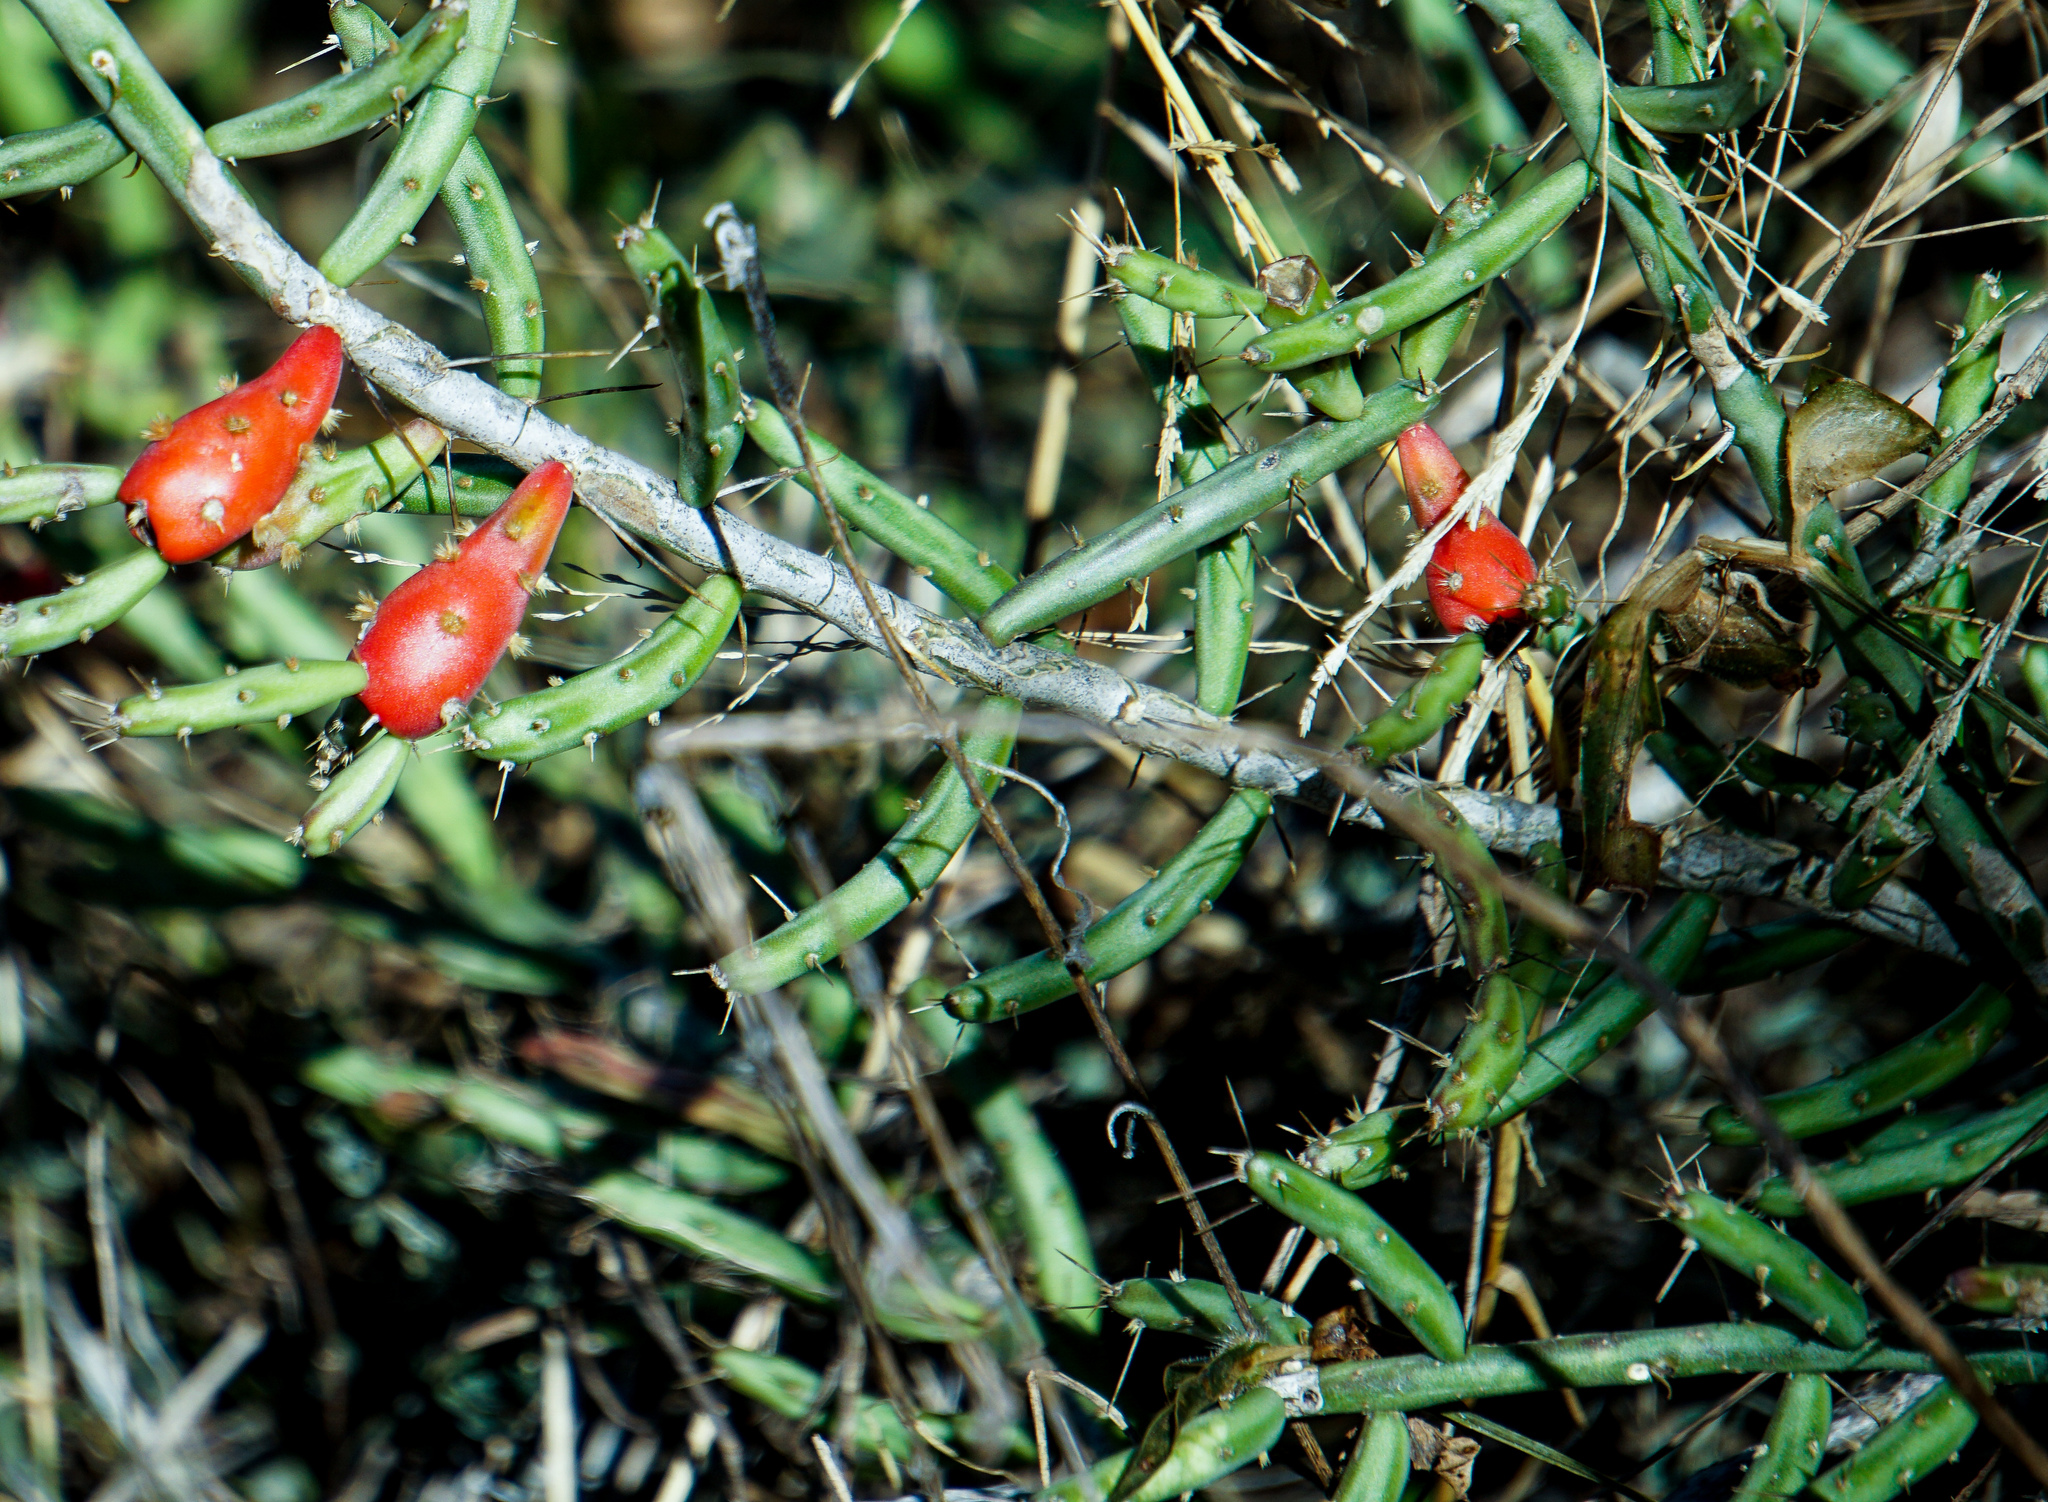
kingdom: Plantae
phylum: Tracheophyta
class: Magnoliopsida
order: Caryophyllales
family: Cactaceae
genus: Cylindropuntia
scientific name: Cylindropuntia leptocaulis
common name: Christmas cactus
